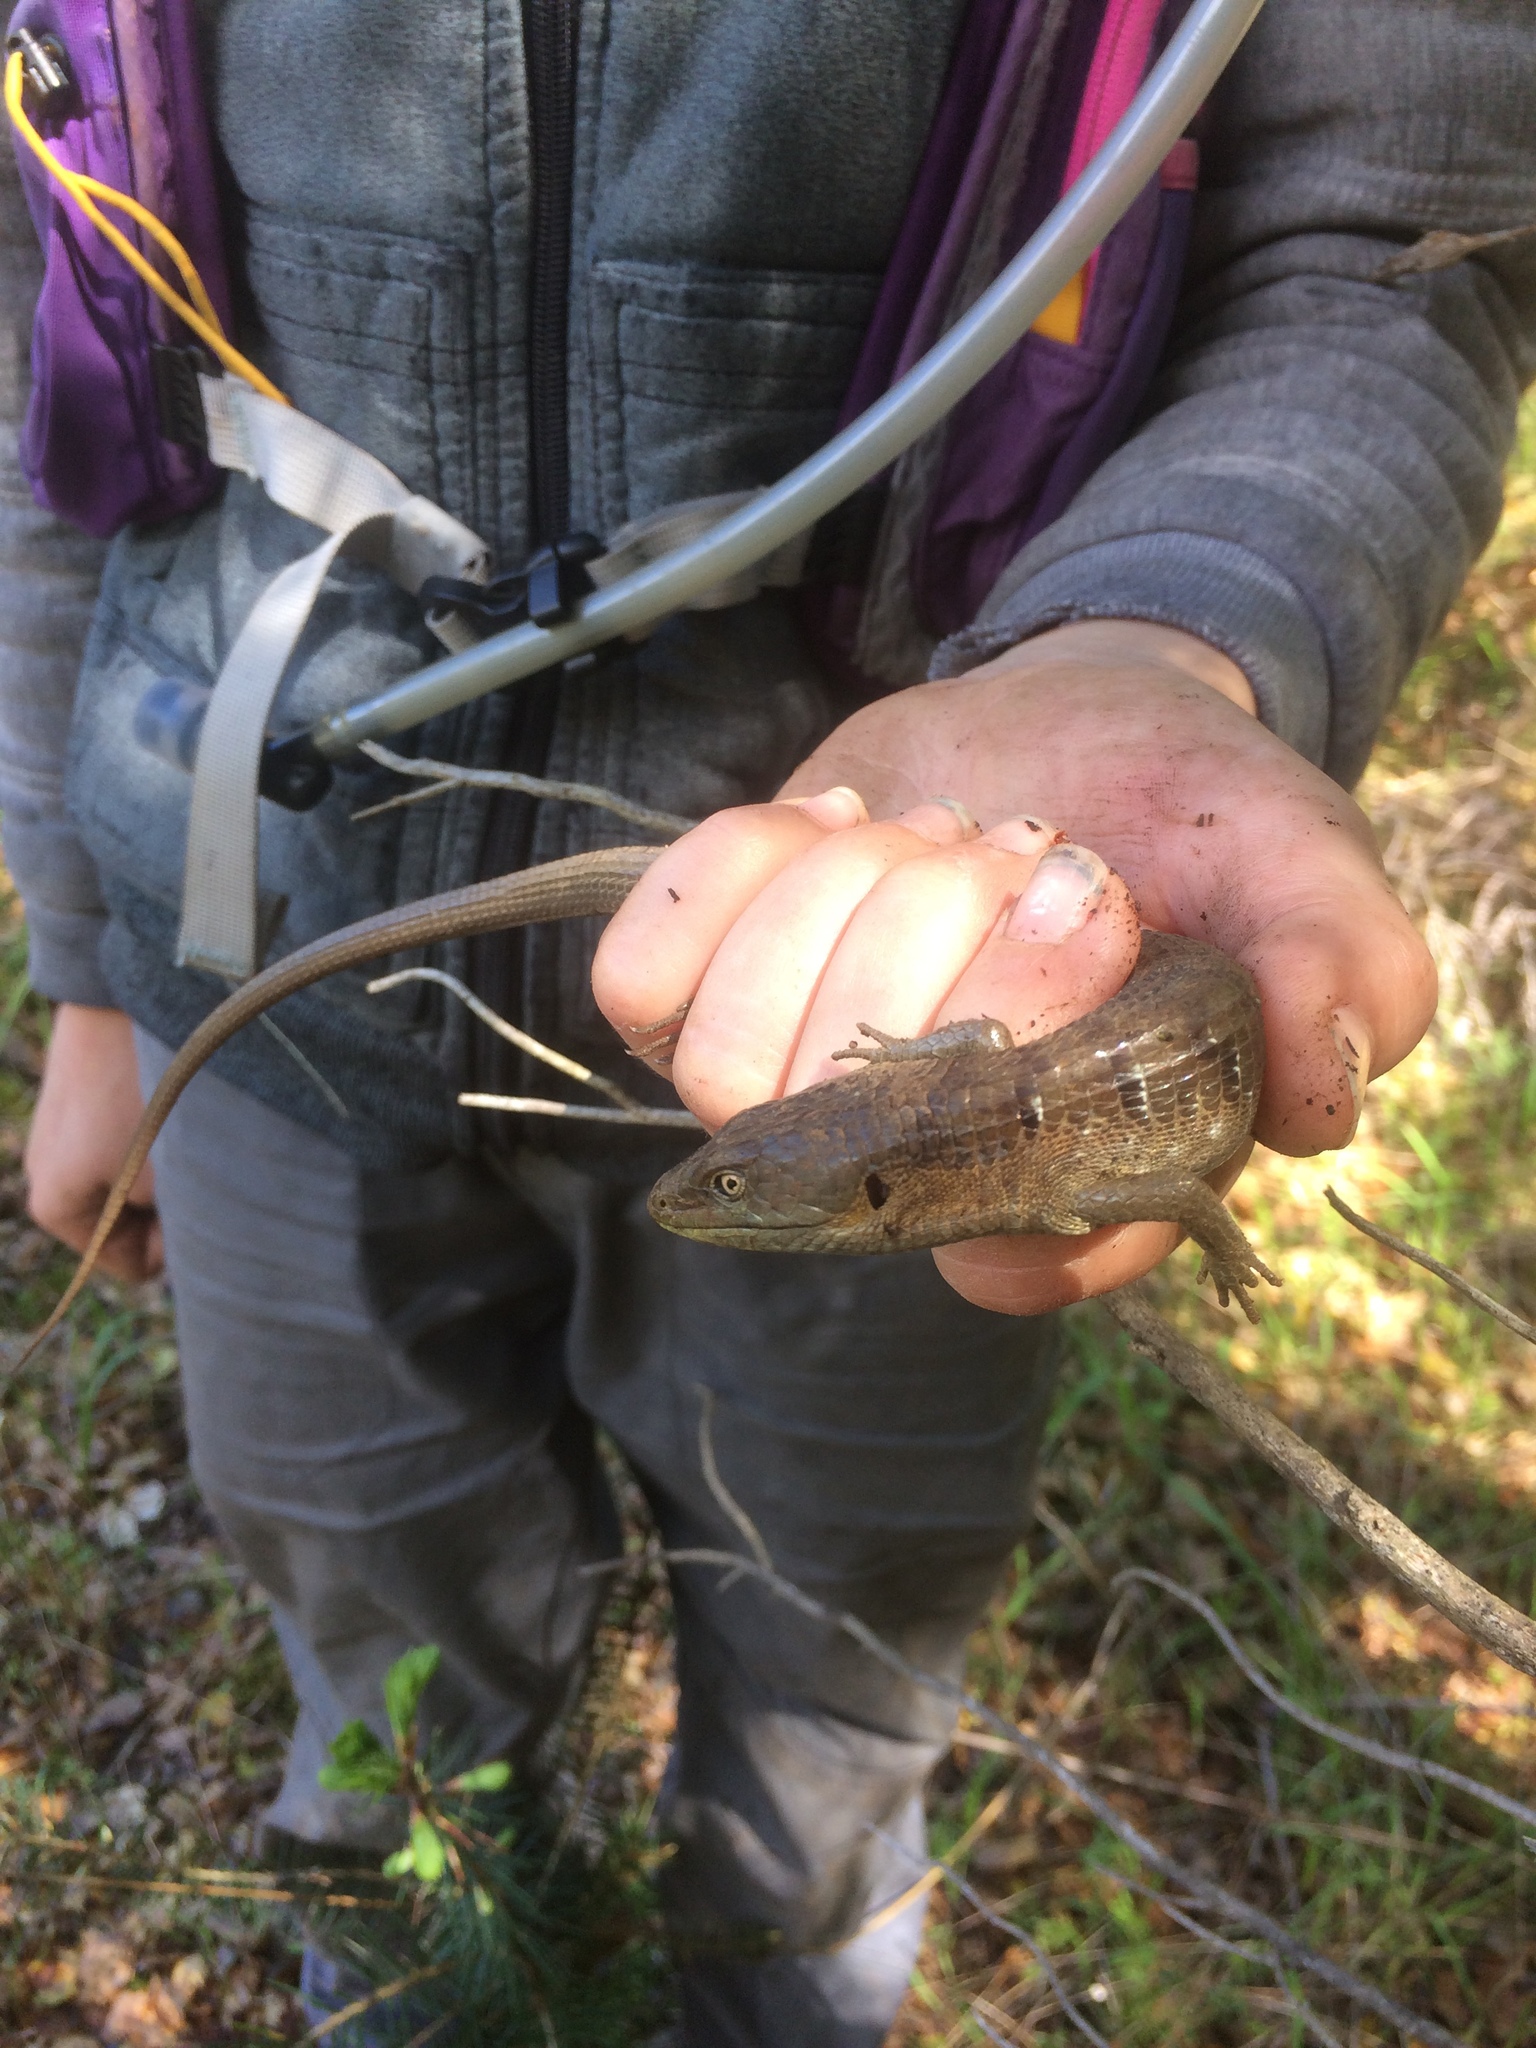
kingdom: Animalia
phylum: Chordata
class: Squamata
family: Anguidae
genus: Elgaria
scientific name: Elgaria multicarinata
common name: Southern alligator lizard
